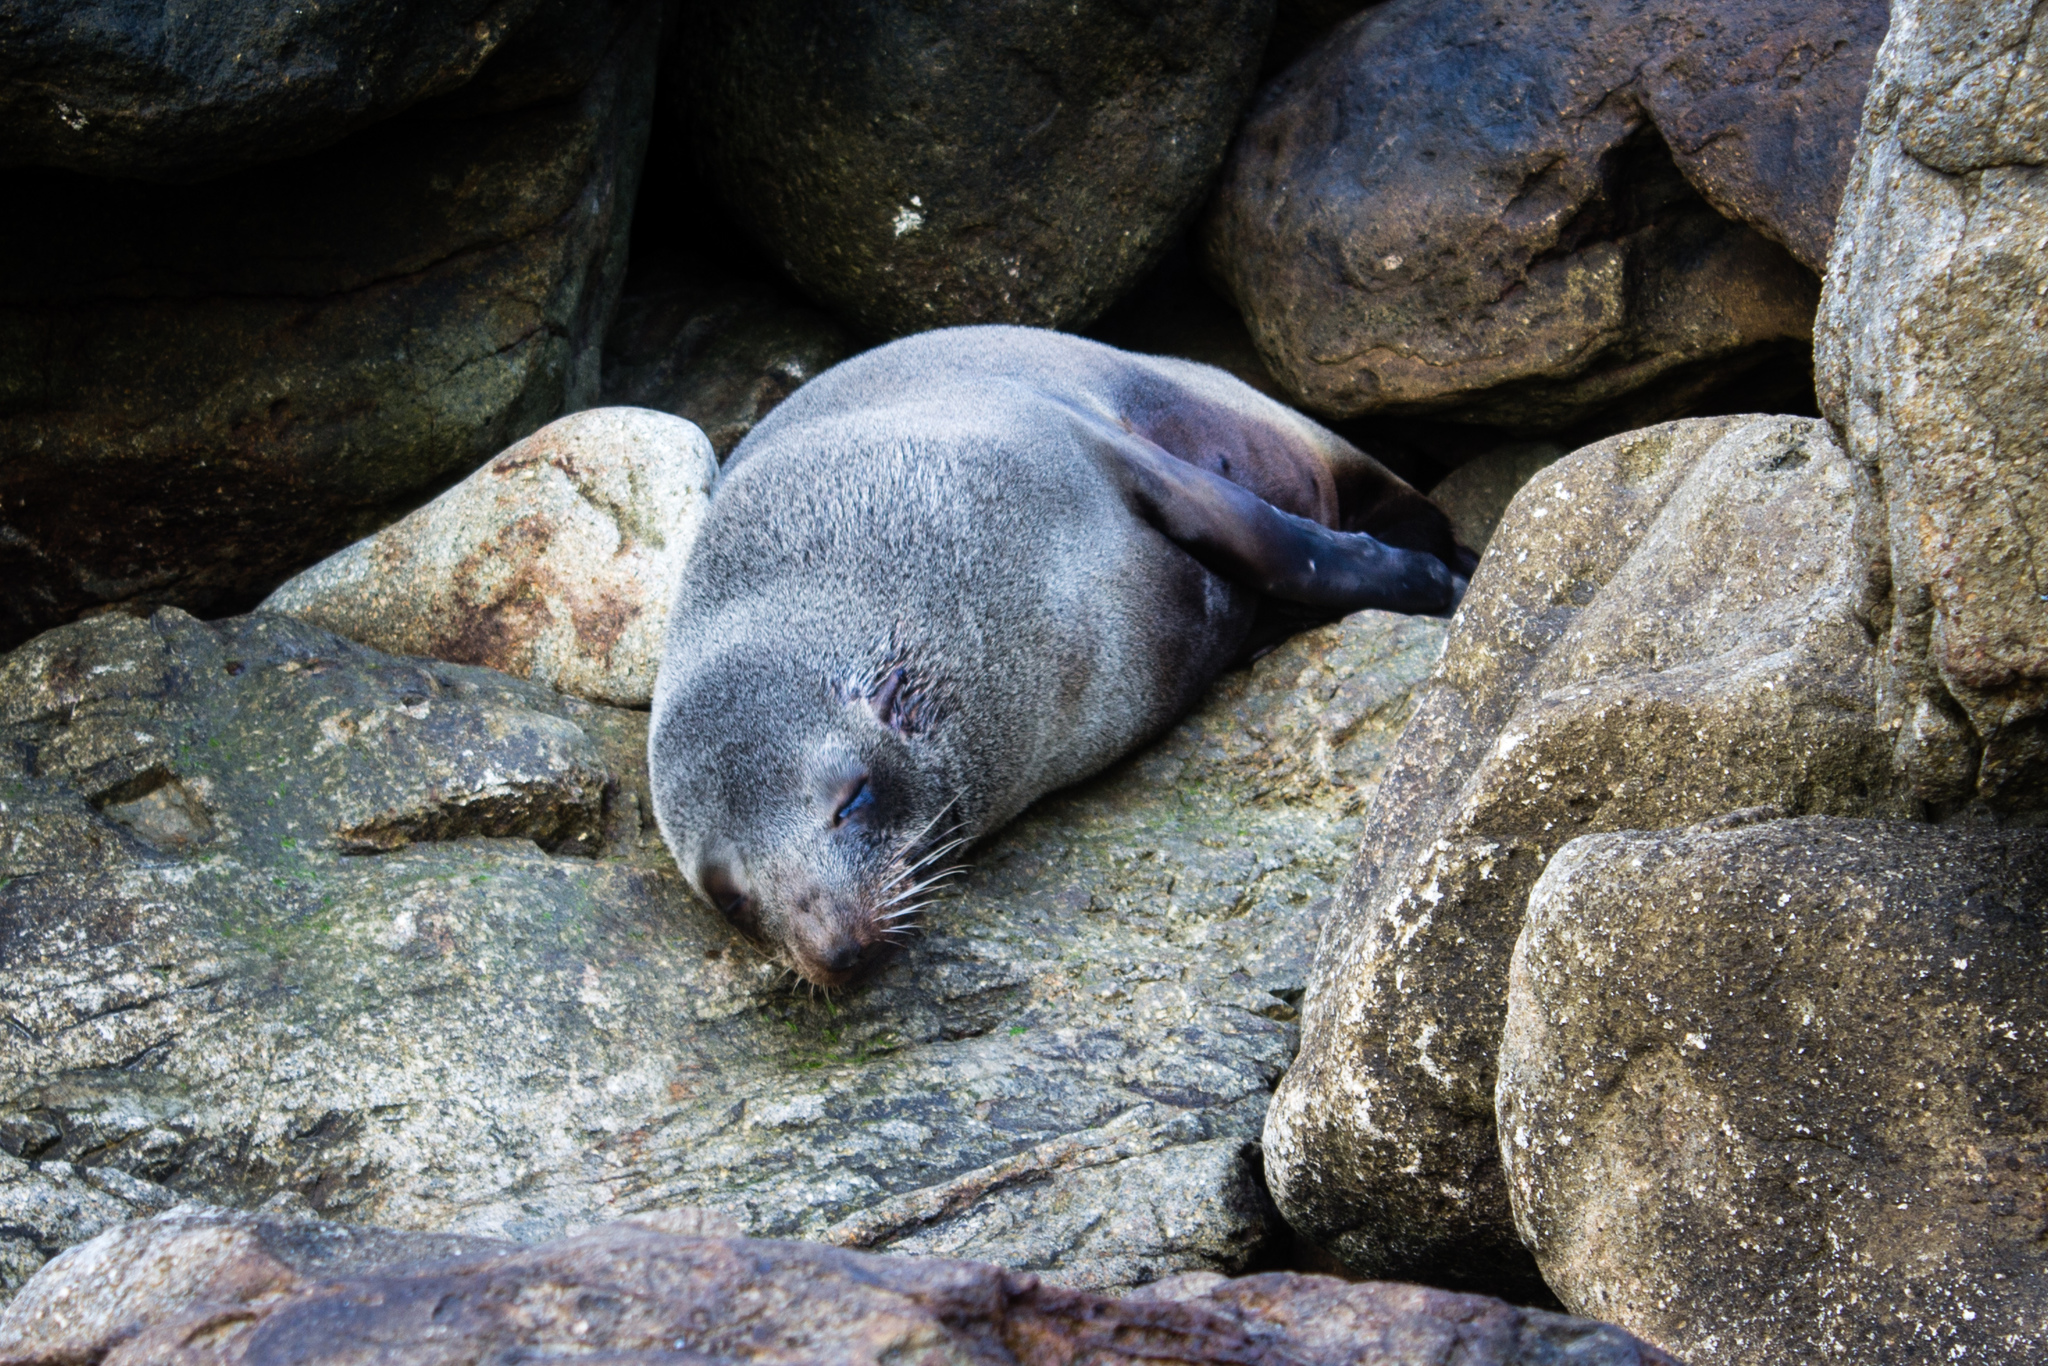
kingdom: Animalia
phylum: Chordata
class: Mammalia
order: Carnivora
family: Otariidae
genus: Arctocephalus
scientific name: Arctocephalus forsteri
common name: New zealand fur seal
